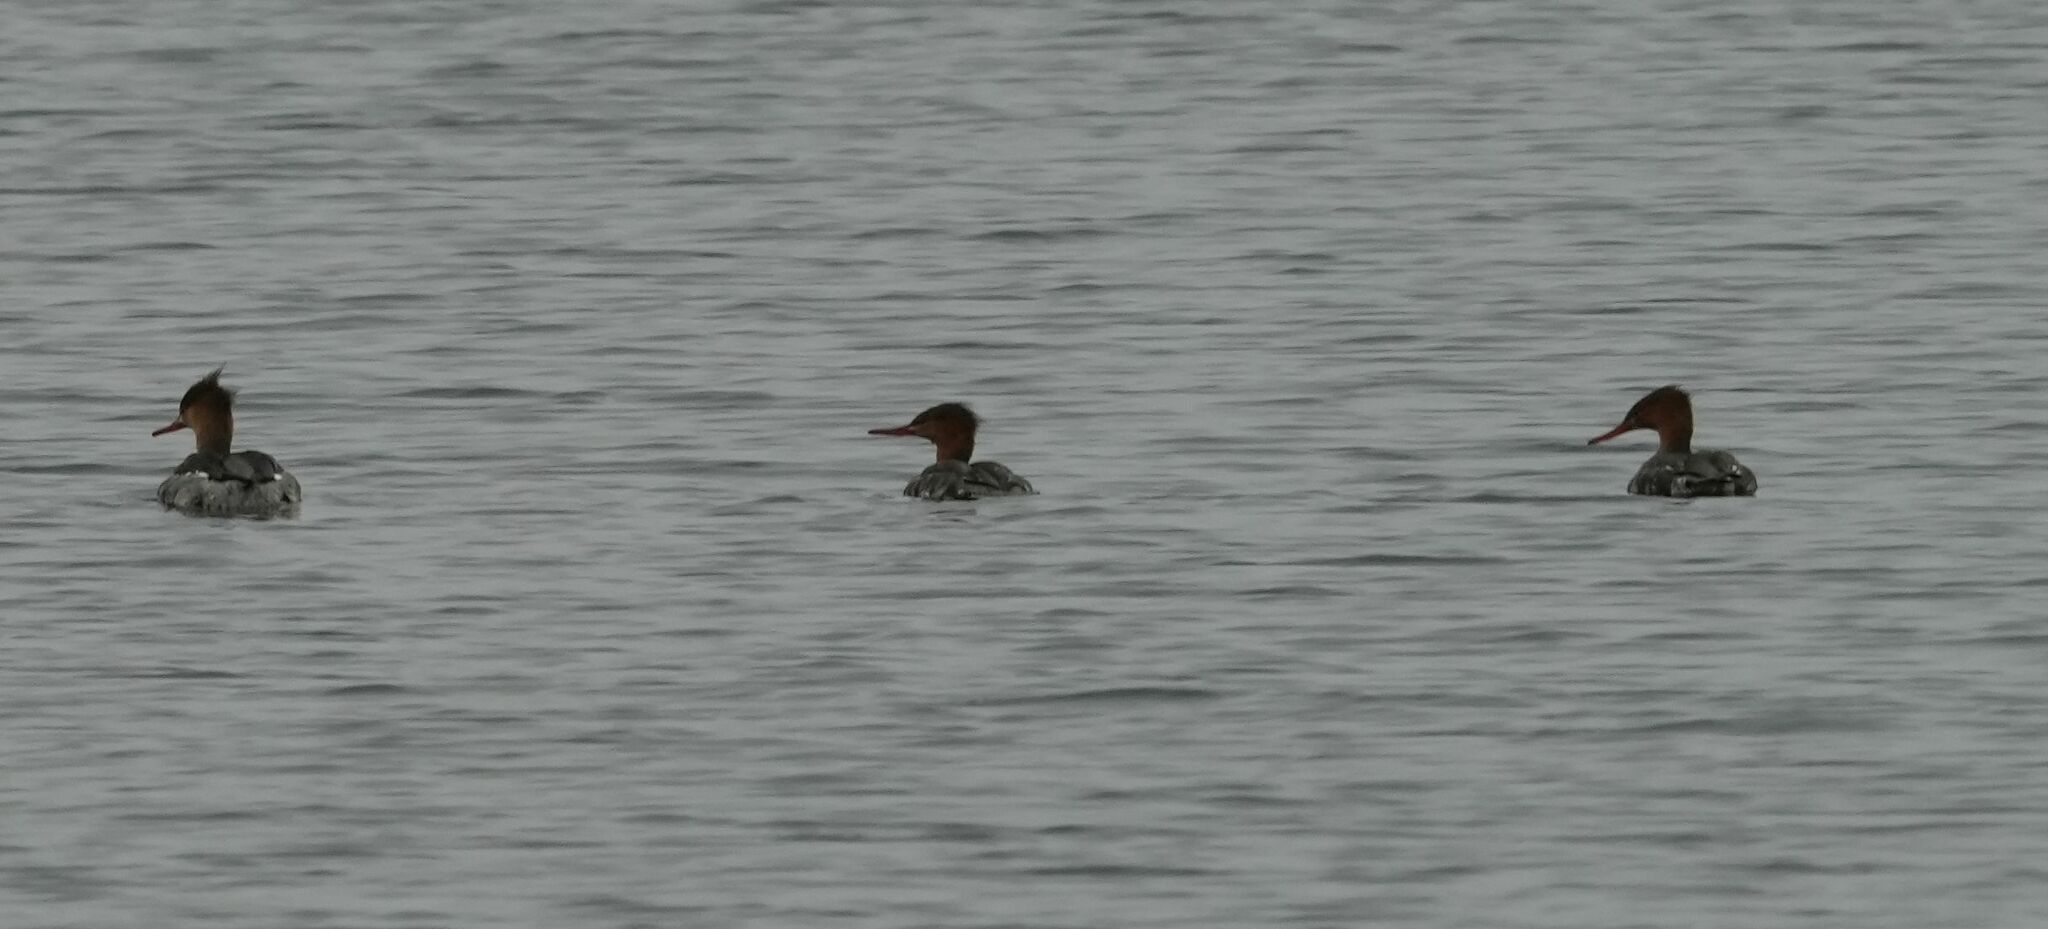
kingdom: Animalia
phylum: Chordata
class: Aves
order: Anseriformes
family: Anatidae
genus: Mergus
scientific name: Mergus serrator
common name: Red-breasted merganser
